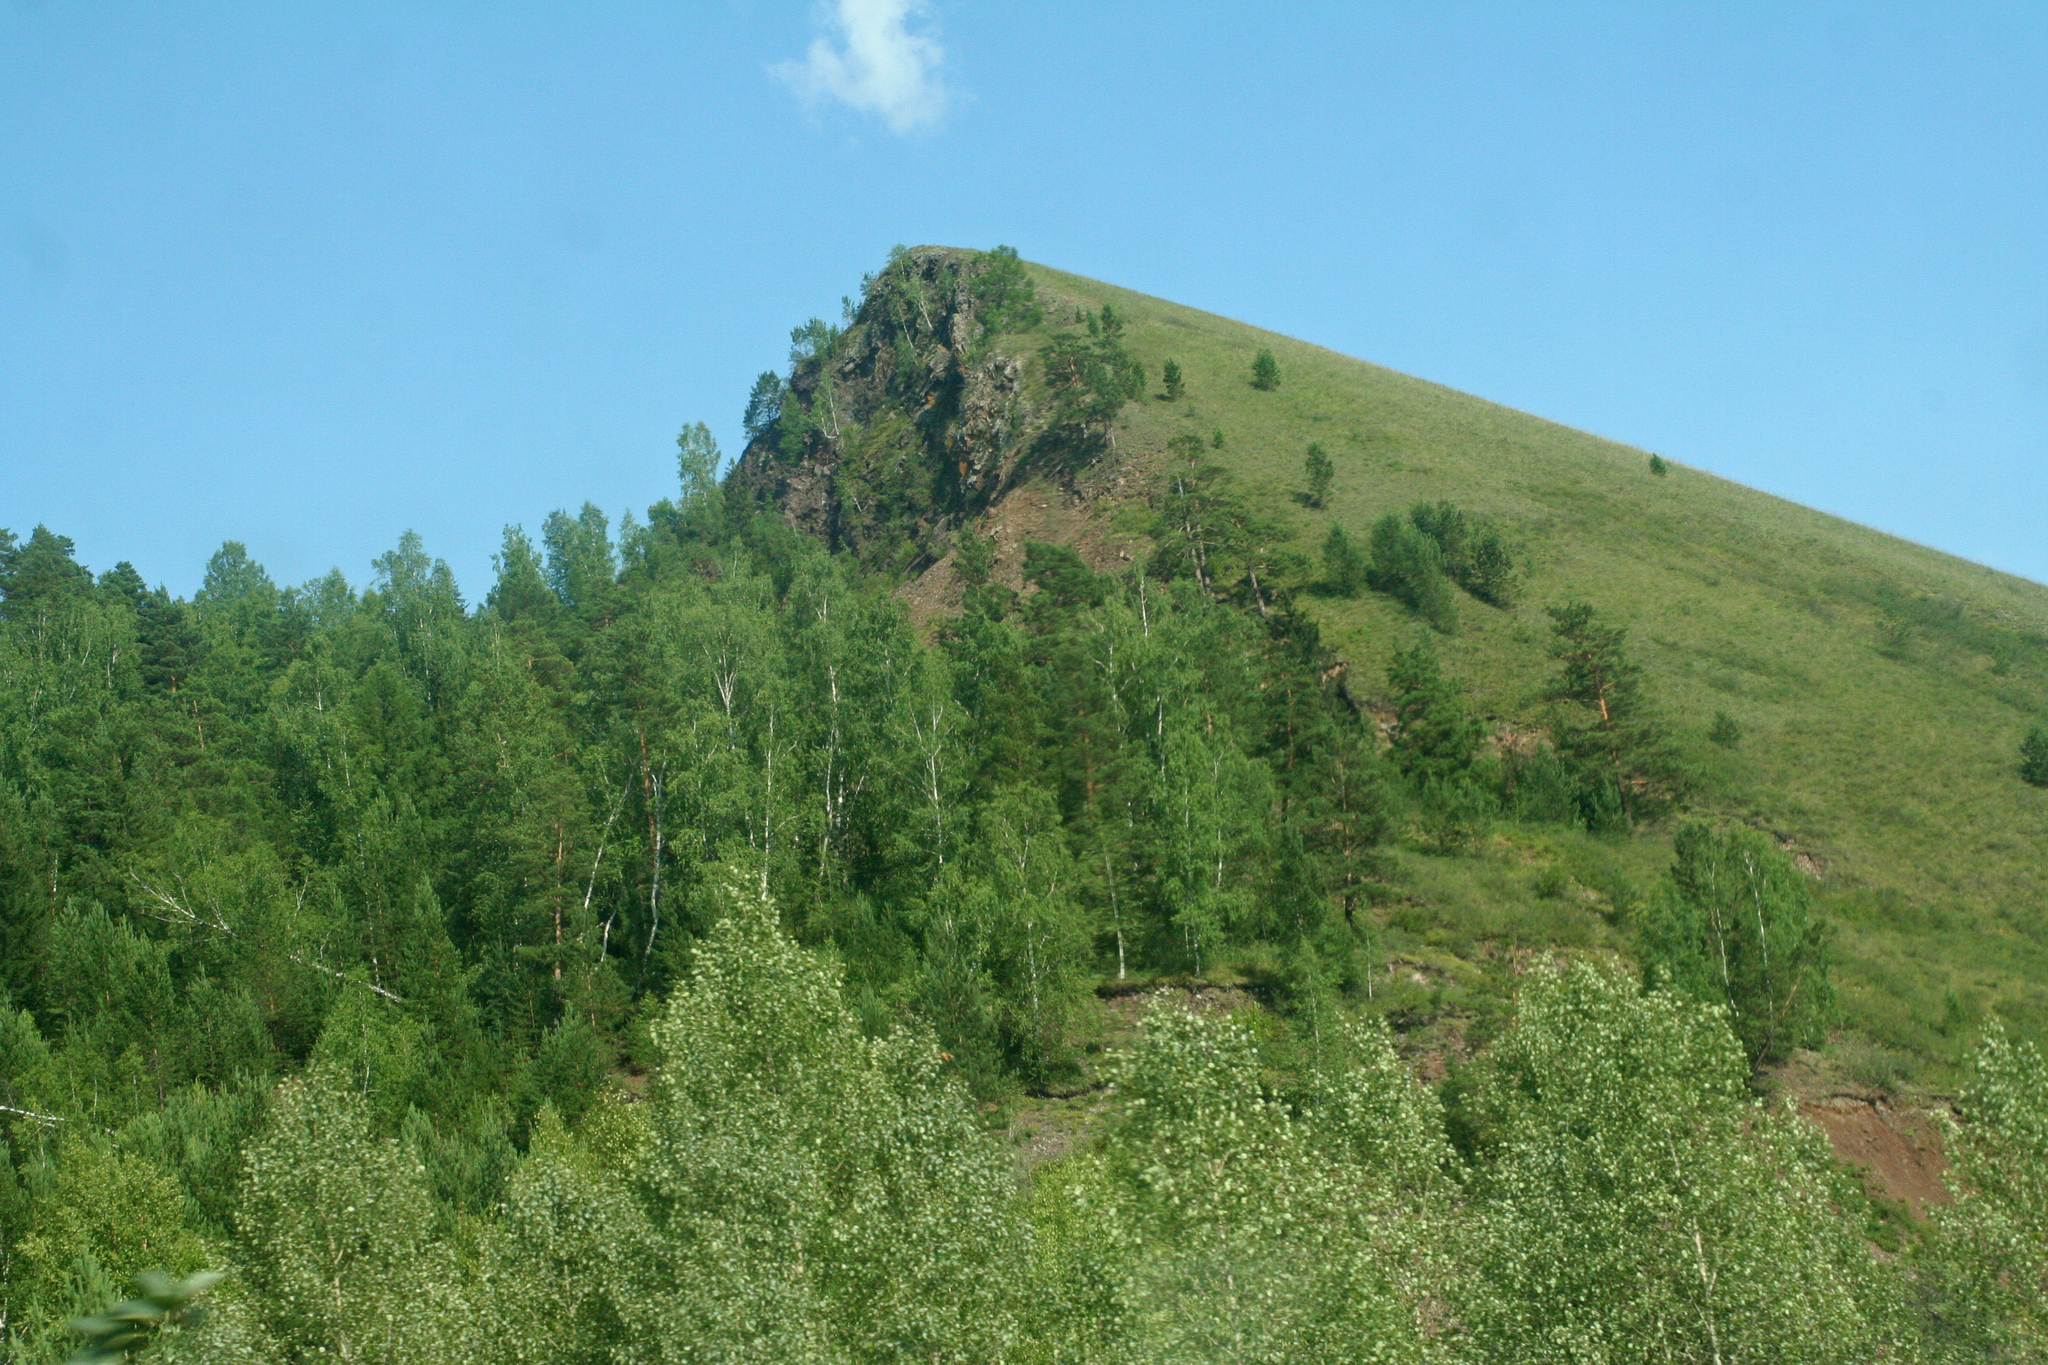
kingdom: Plantae
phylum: Tracheophyta
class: Pinopsida
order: Pinales
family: Pinaceae
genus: Pinus
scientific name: Pinus sylvestris
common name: Scots pine
